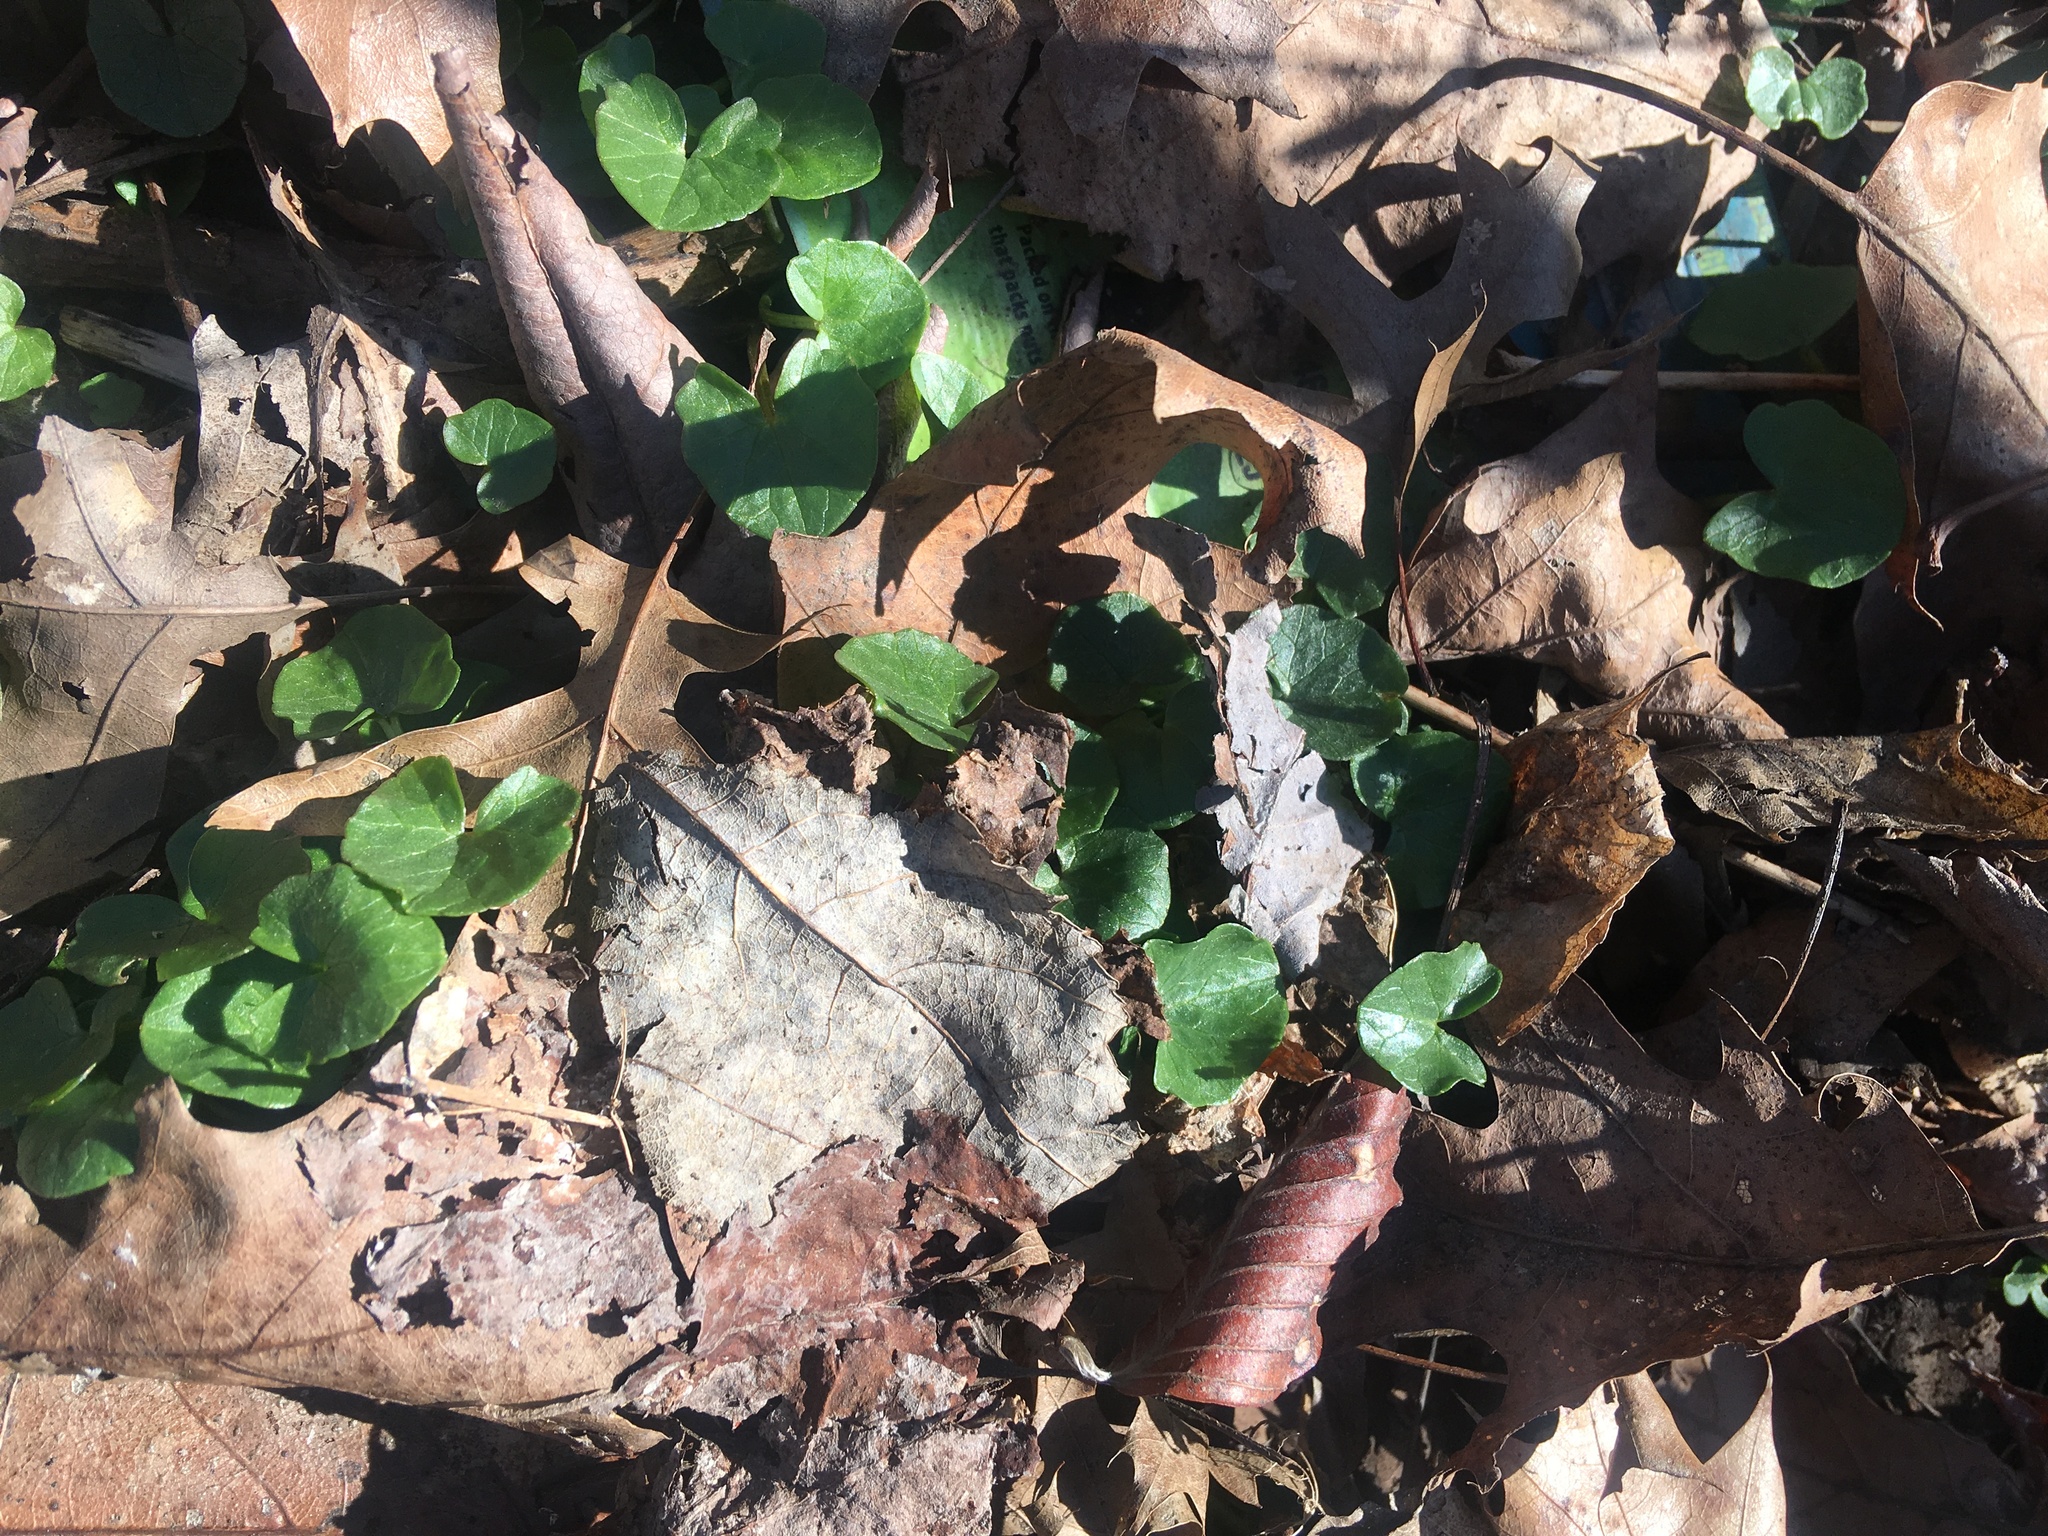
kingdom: Plantae
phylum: Tracheophyta
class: Magnoliopsida
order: Ranunculales
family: Ranunculaceae
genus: Ficaria
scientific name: Ficaria verna
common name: Lesser celandine
